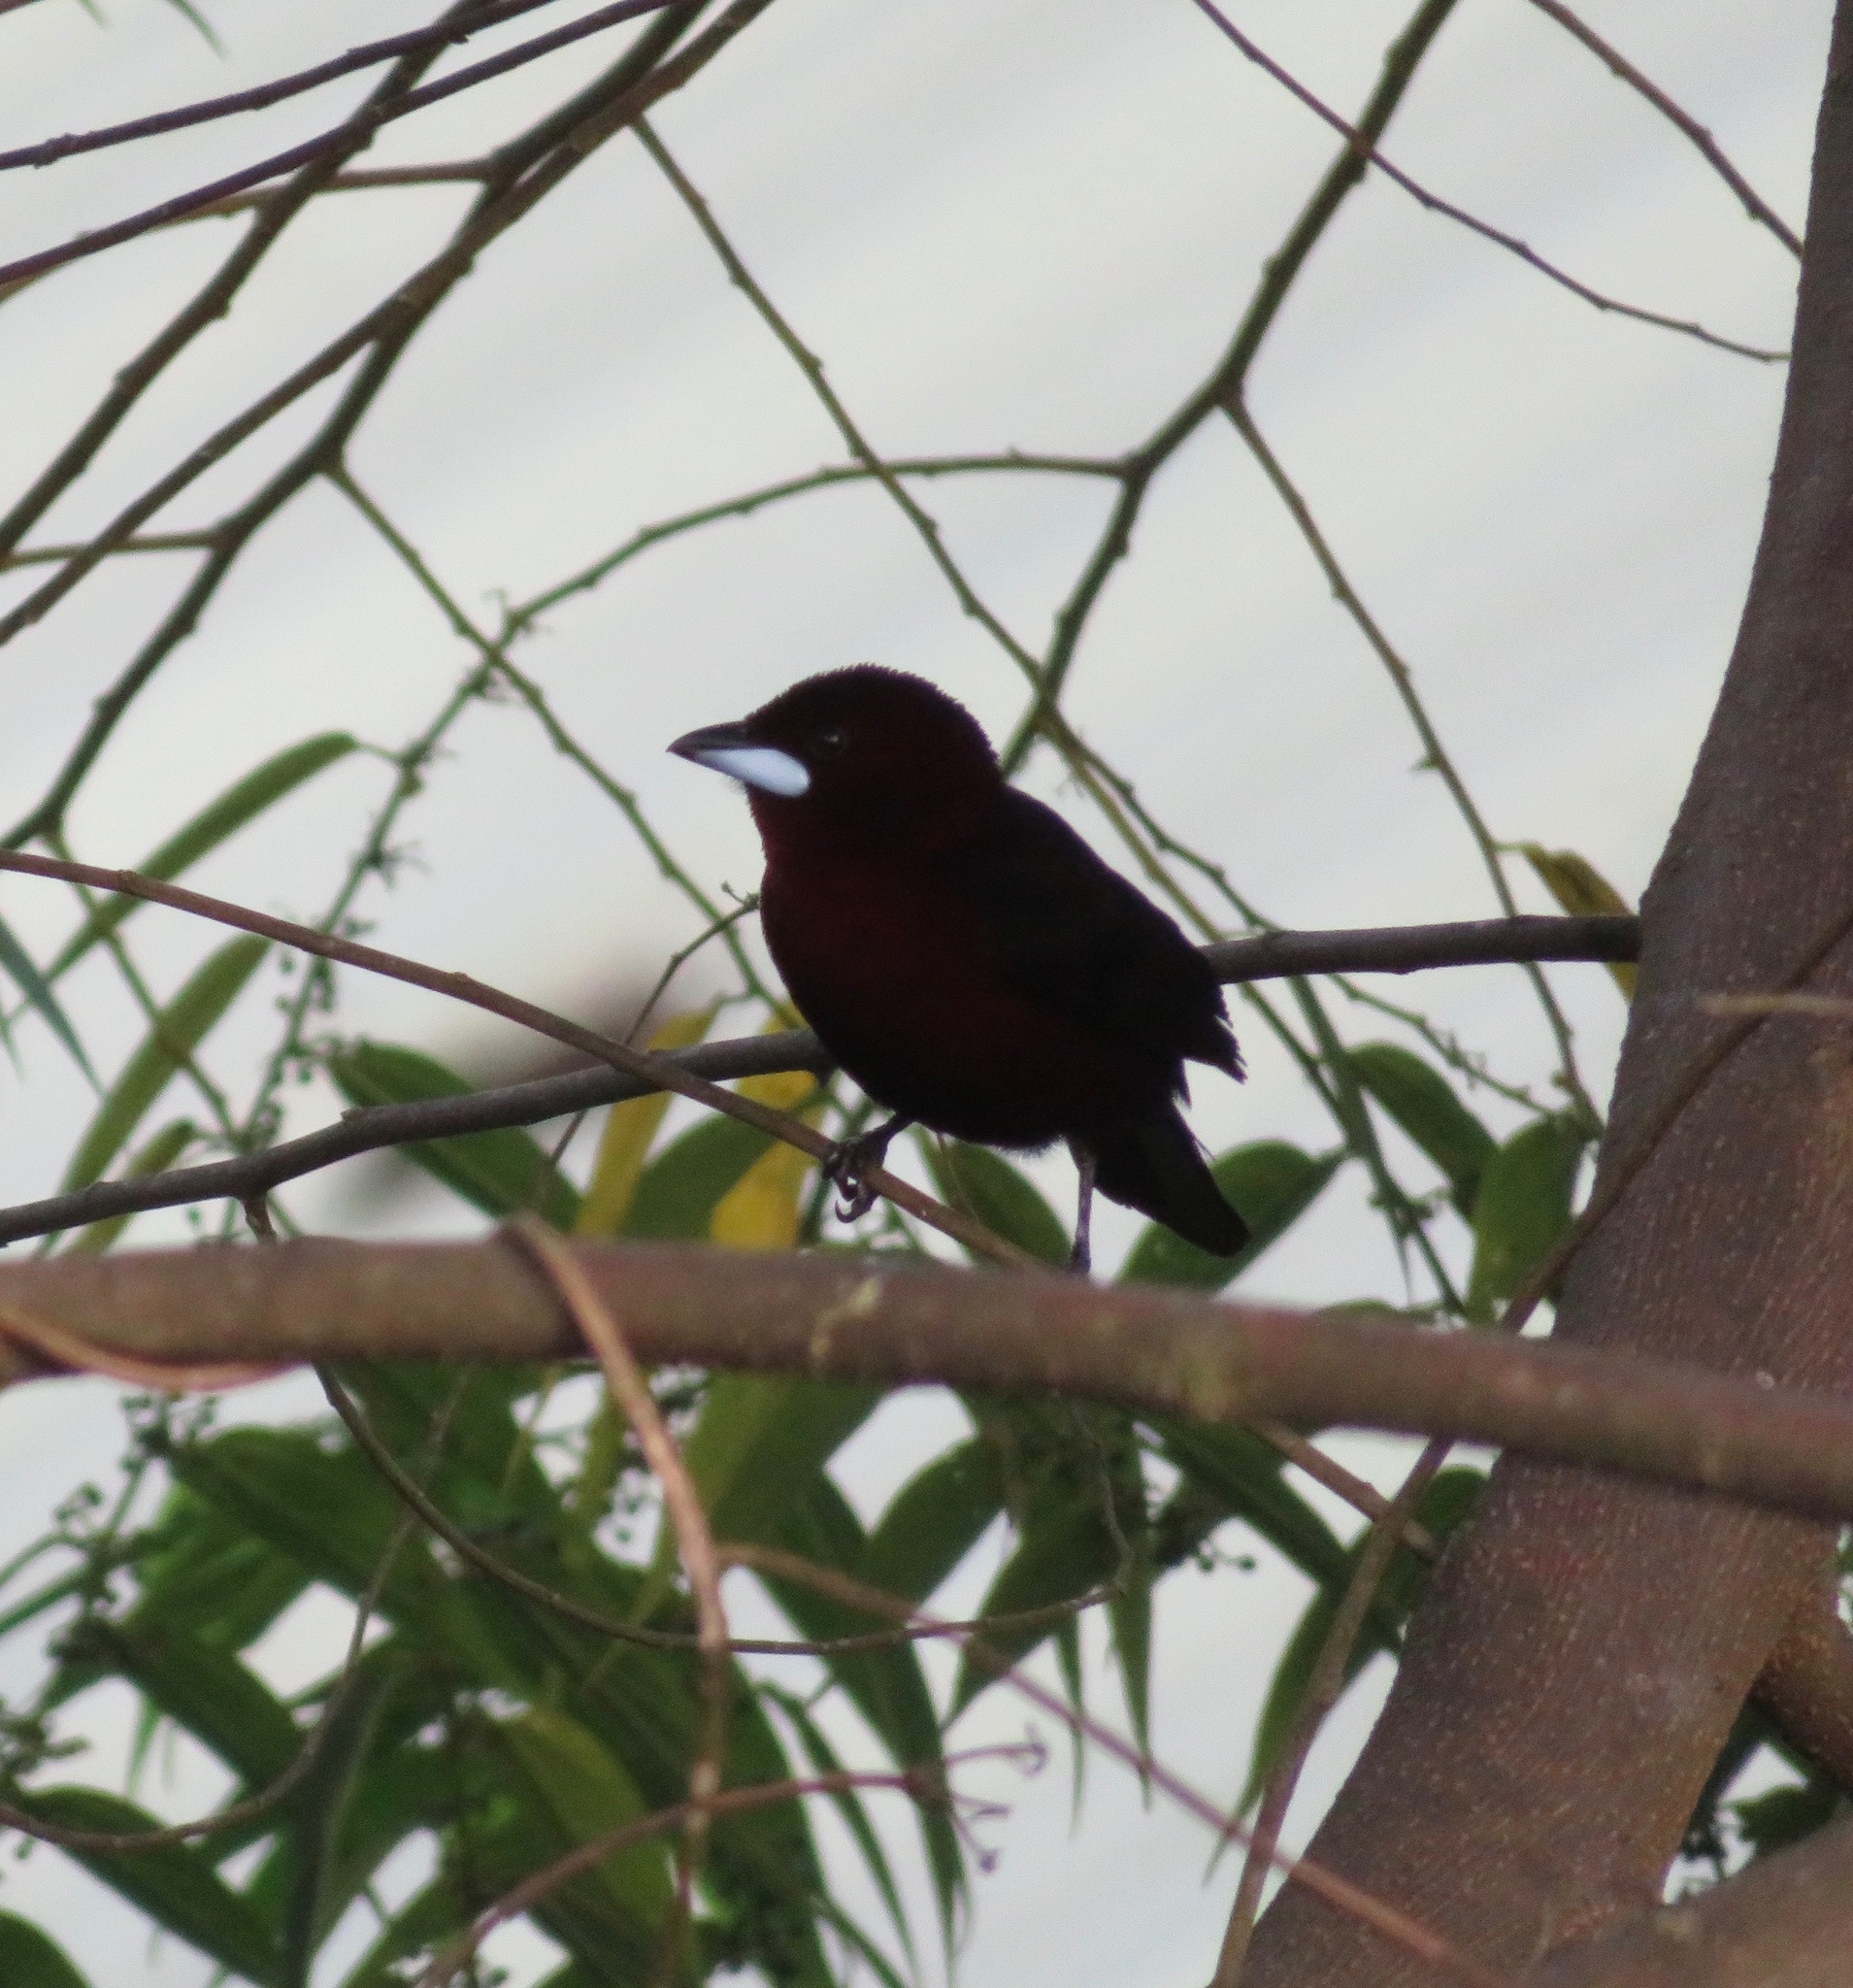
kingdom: Animalia
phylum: Chordata
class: Aves
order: Passeriformes
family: Thraupidae
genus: Ramphocelus
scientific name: Ramphocelus carbo
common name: Silver-beaked tanager
